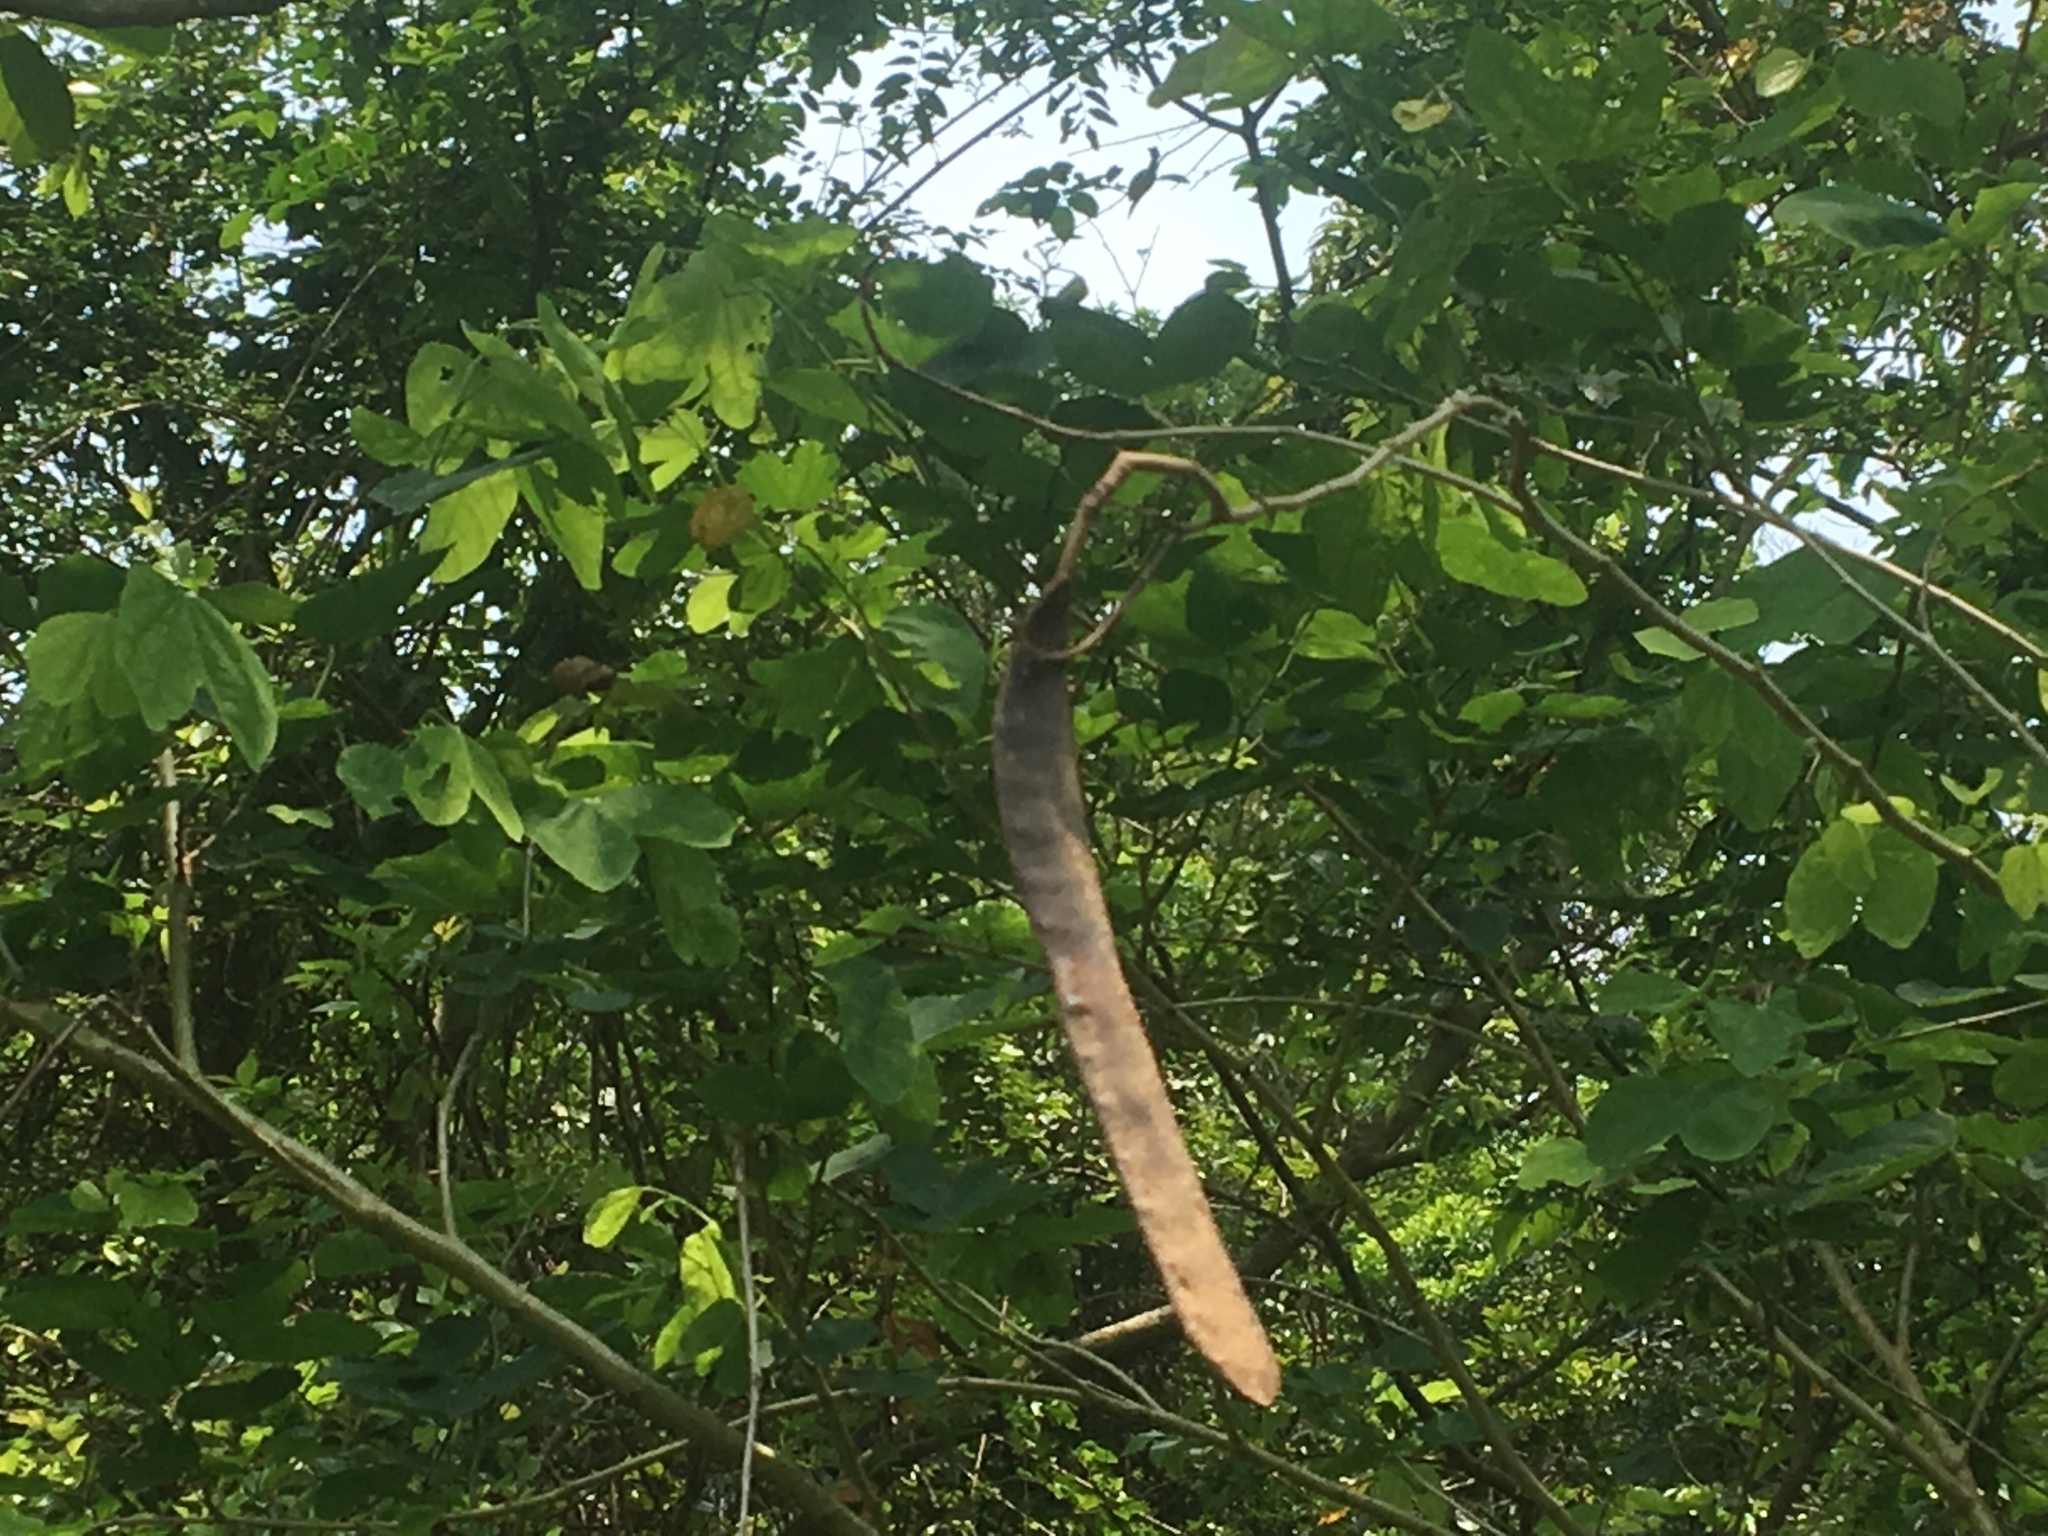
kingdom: Plantae
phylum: Tracheophyta
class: Magnoliopsida
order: Fabales
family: Fabaceae
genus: Bauhinia
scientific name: Bauhinia purpurea
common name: Butterfly-tree
